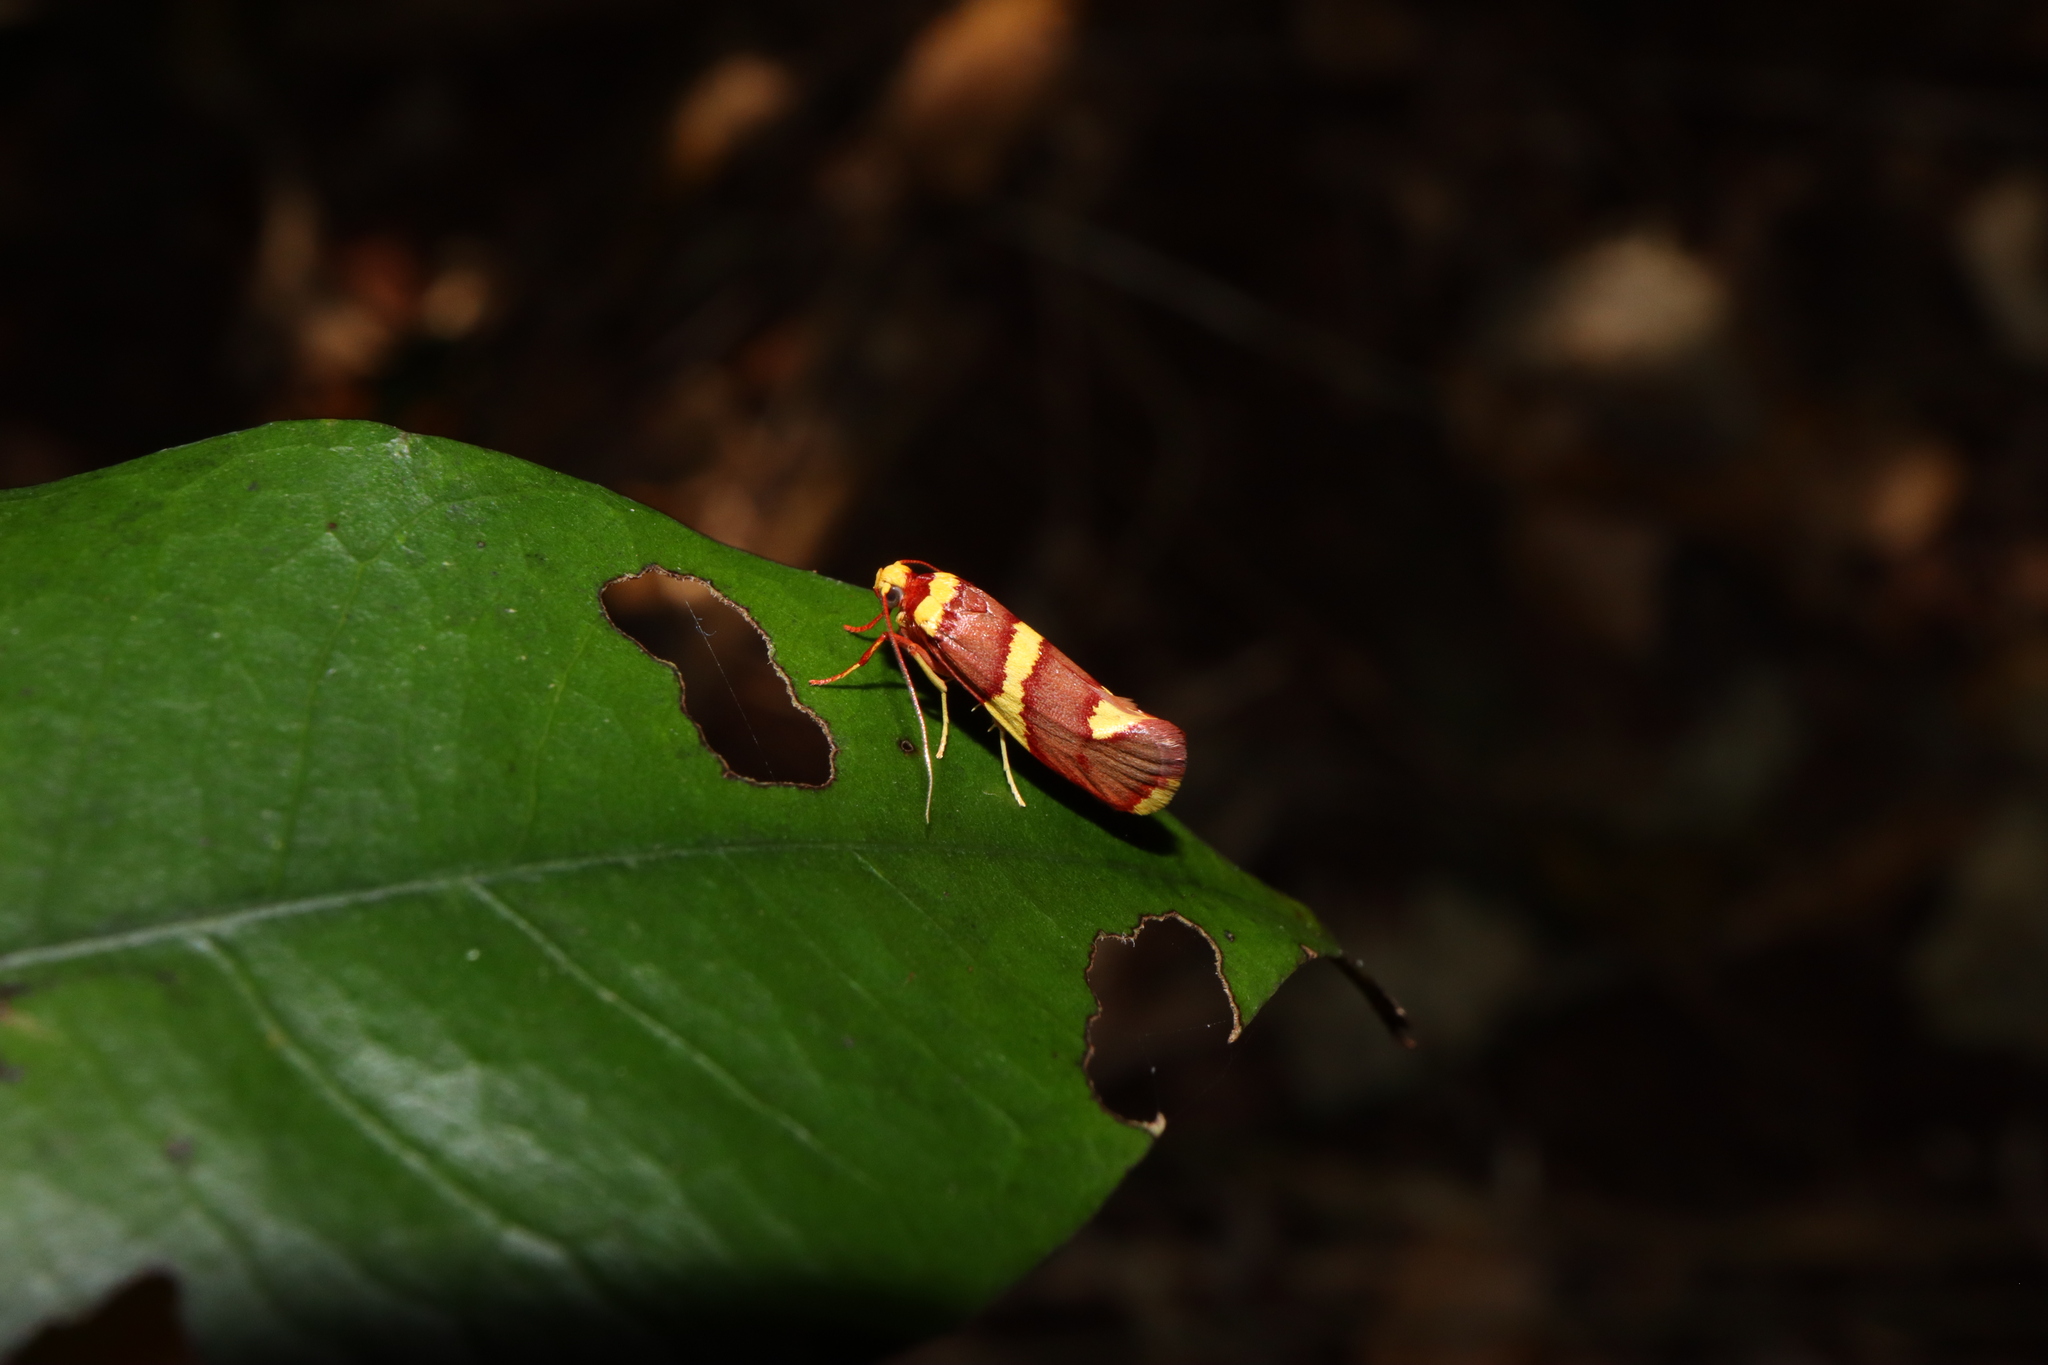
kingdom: Animalia
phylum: Arthropoda
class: Insecta
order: Lepidoptera
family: Lacturidae
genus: Anticrates
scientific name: Anticrates metreta
